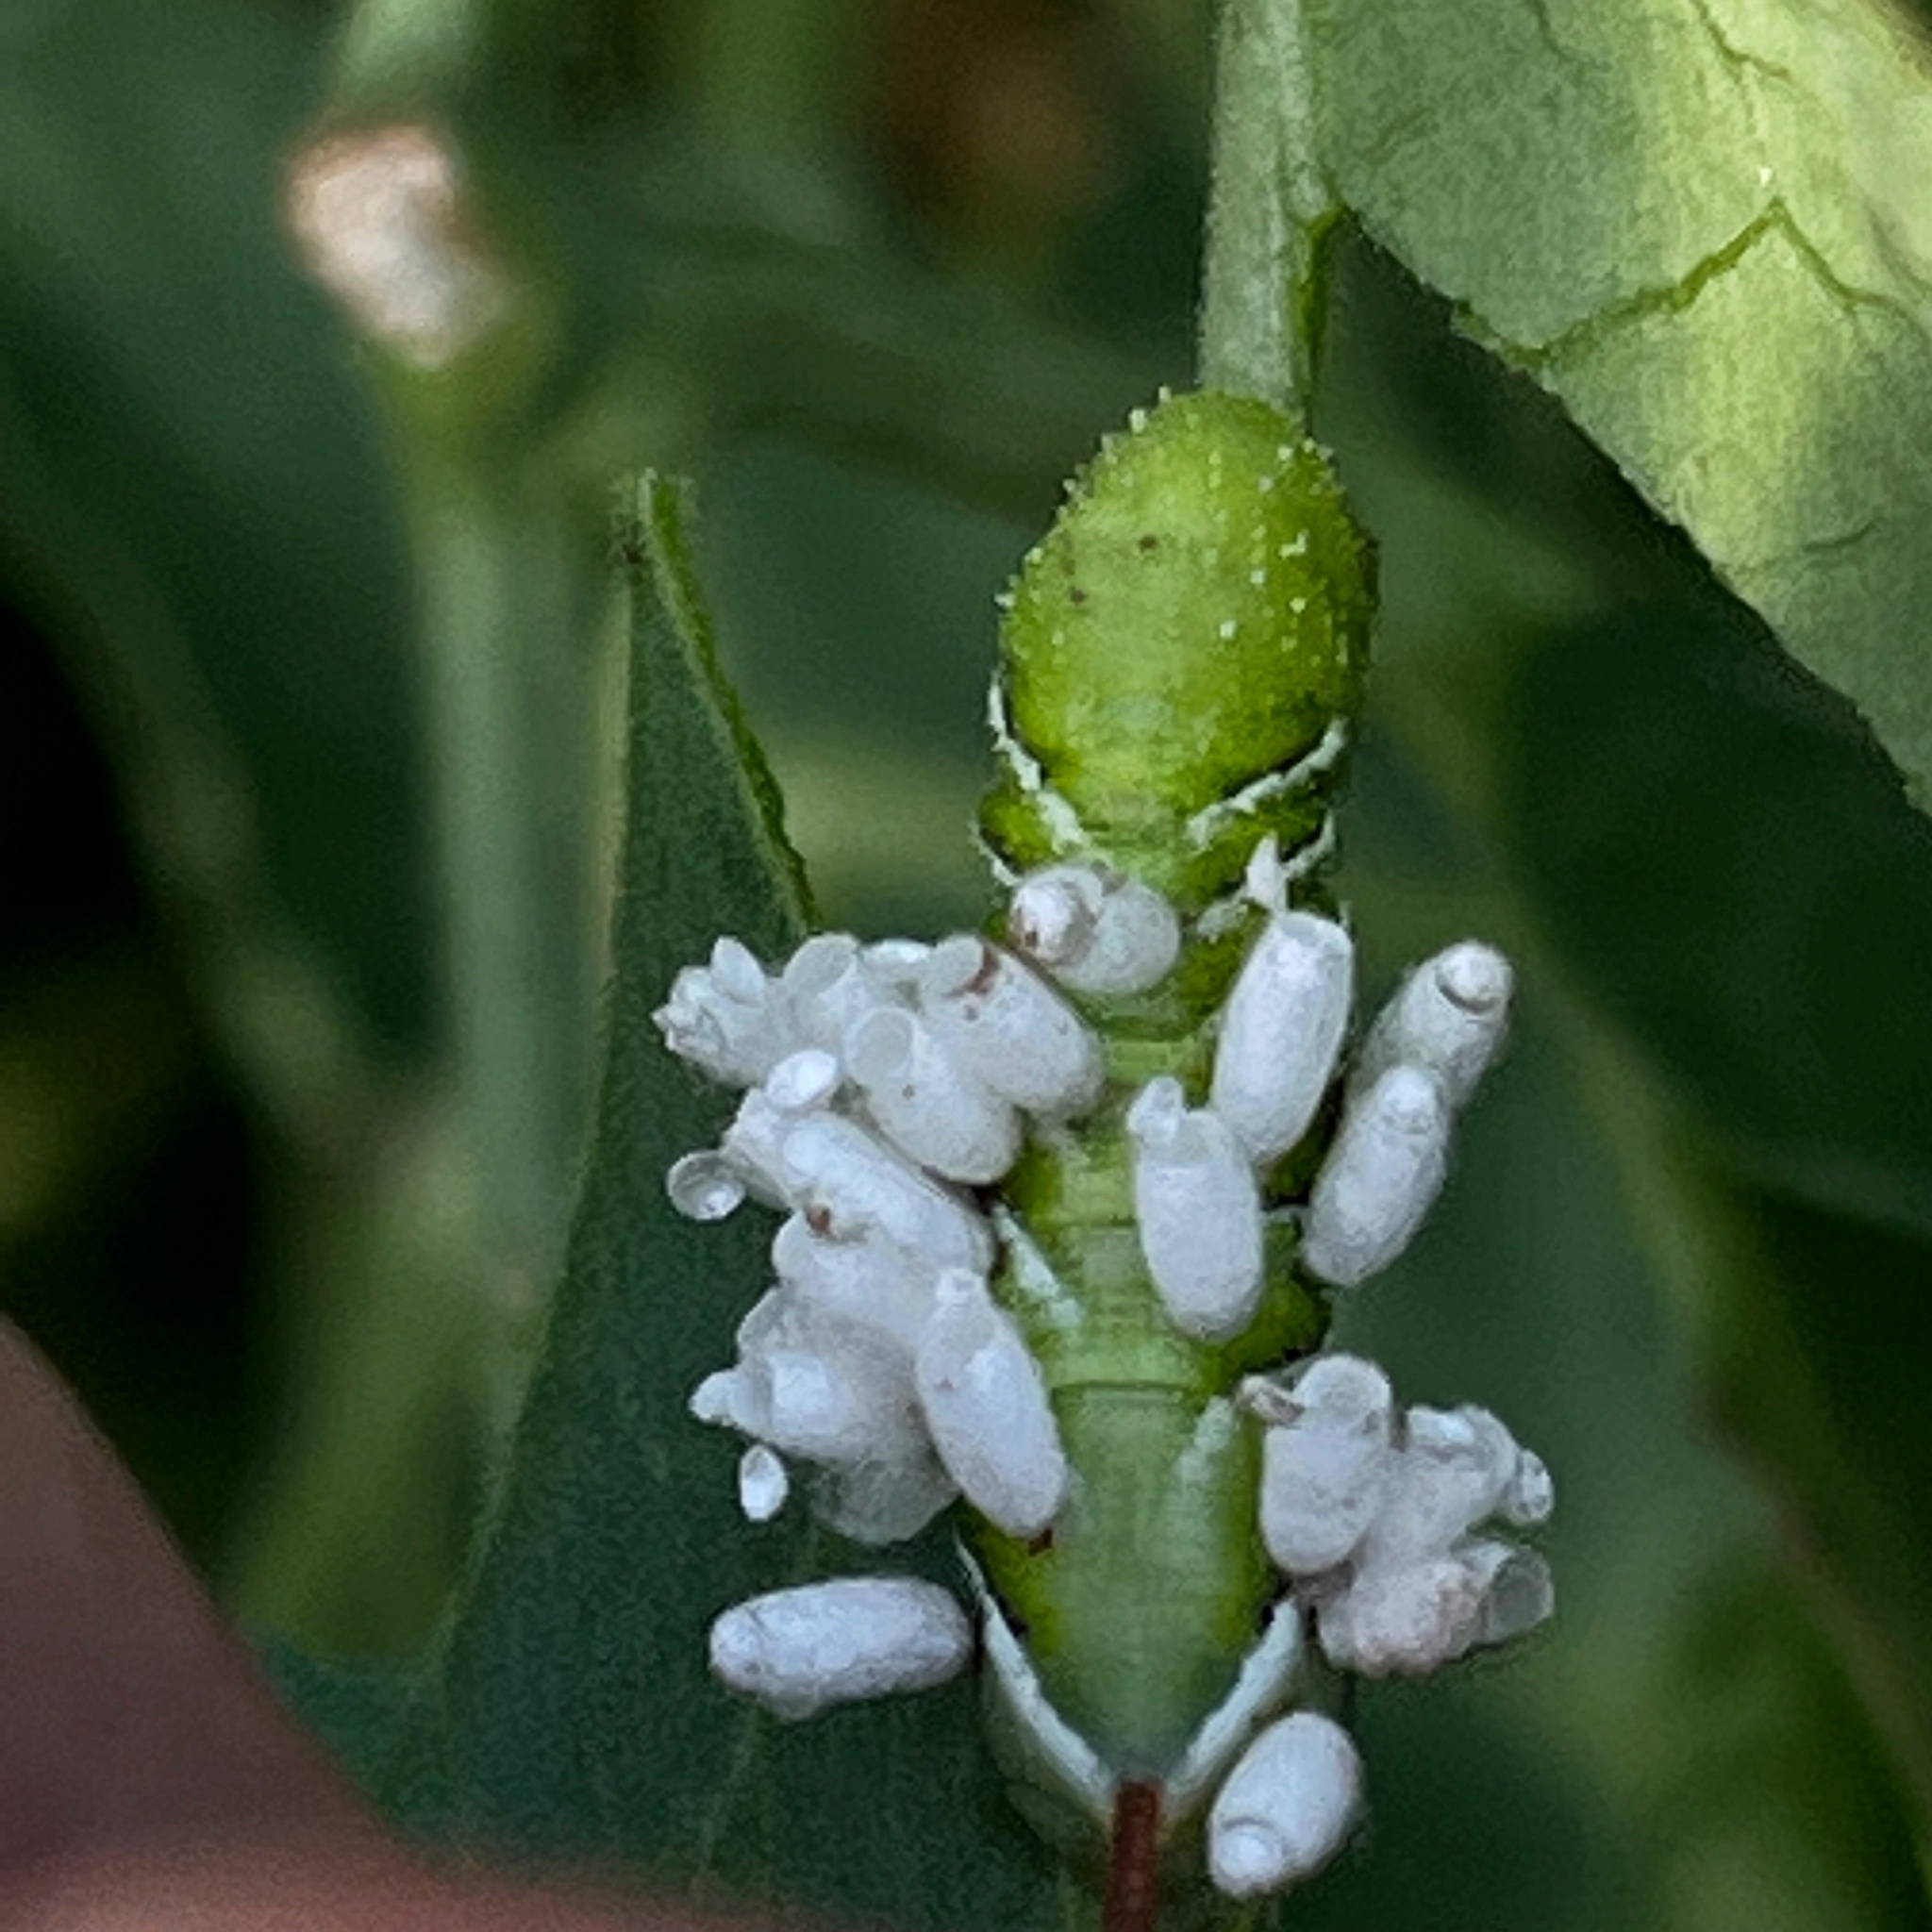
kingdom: Animalia
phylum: Arthropoda
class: Insecta
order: Hymenoptera
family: Braconidae
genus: Cotesia
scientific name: Cotesia congregata
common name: Hornworm parasitoid wasp
